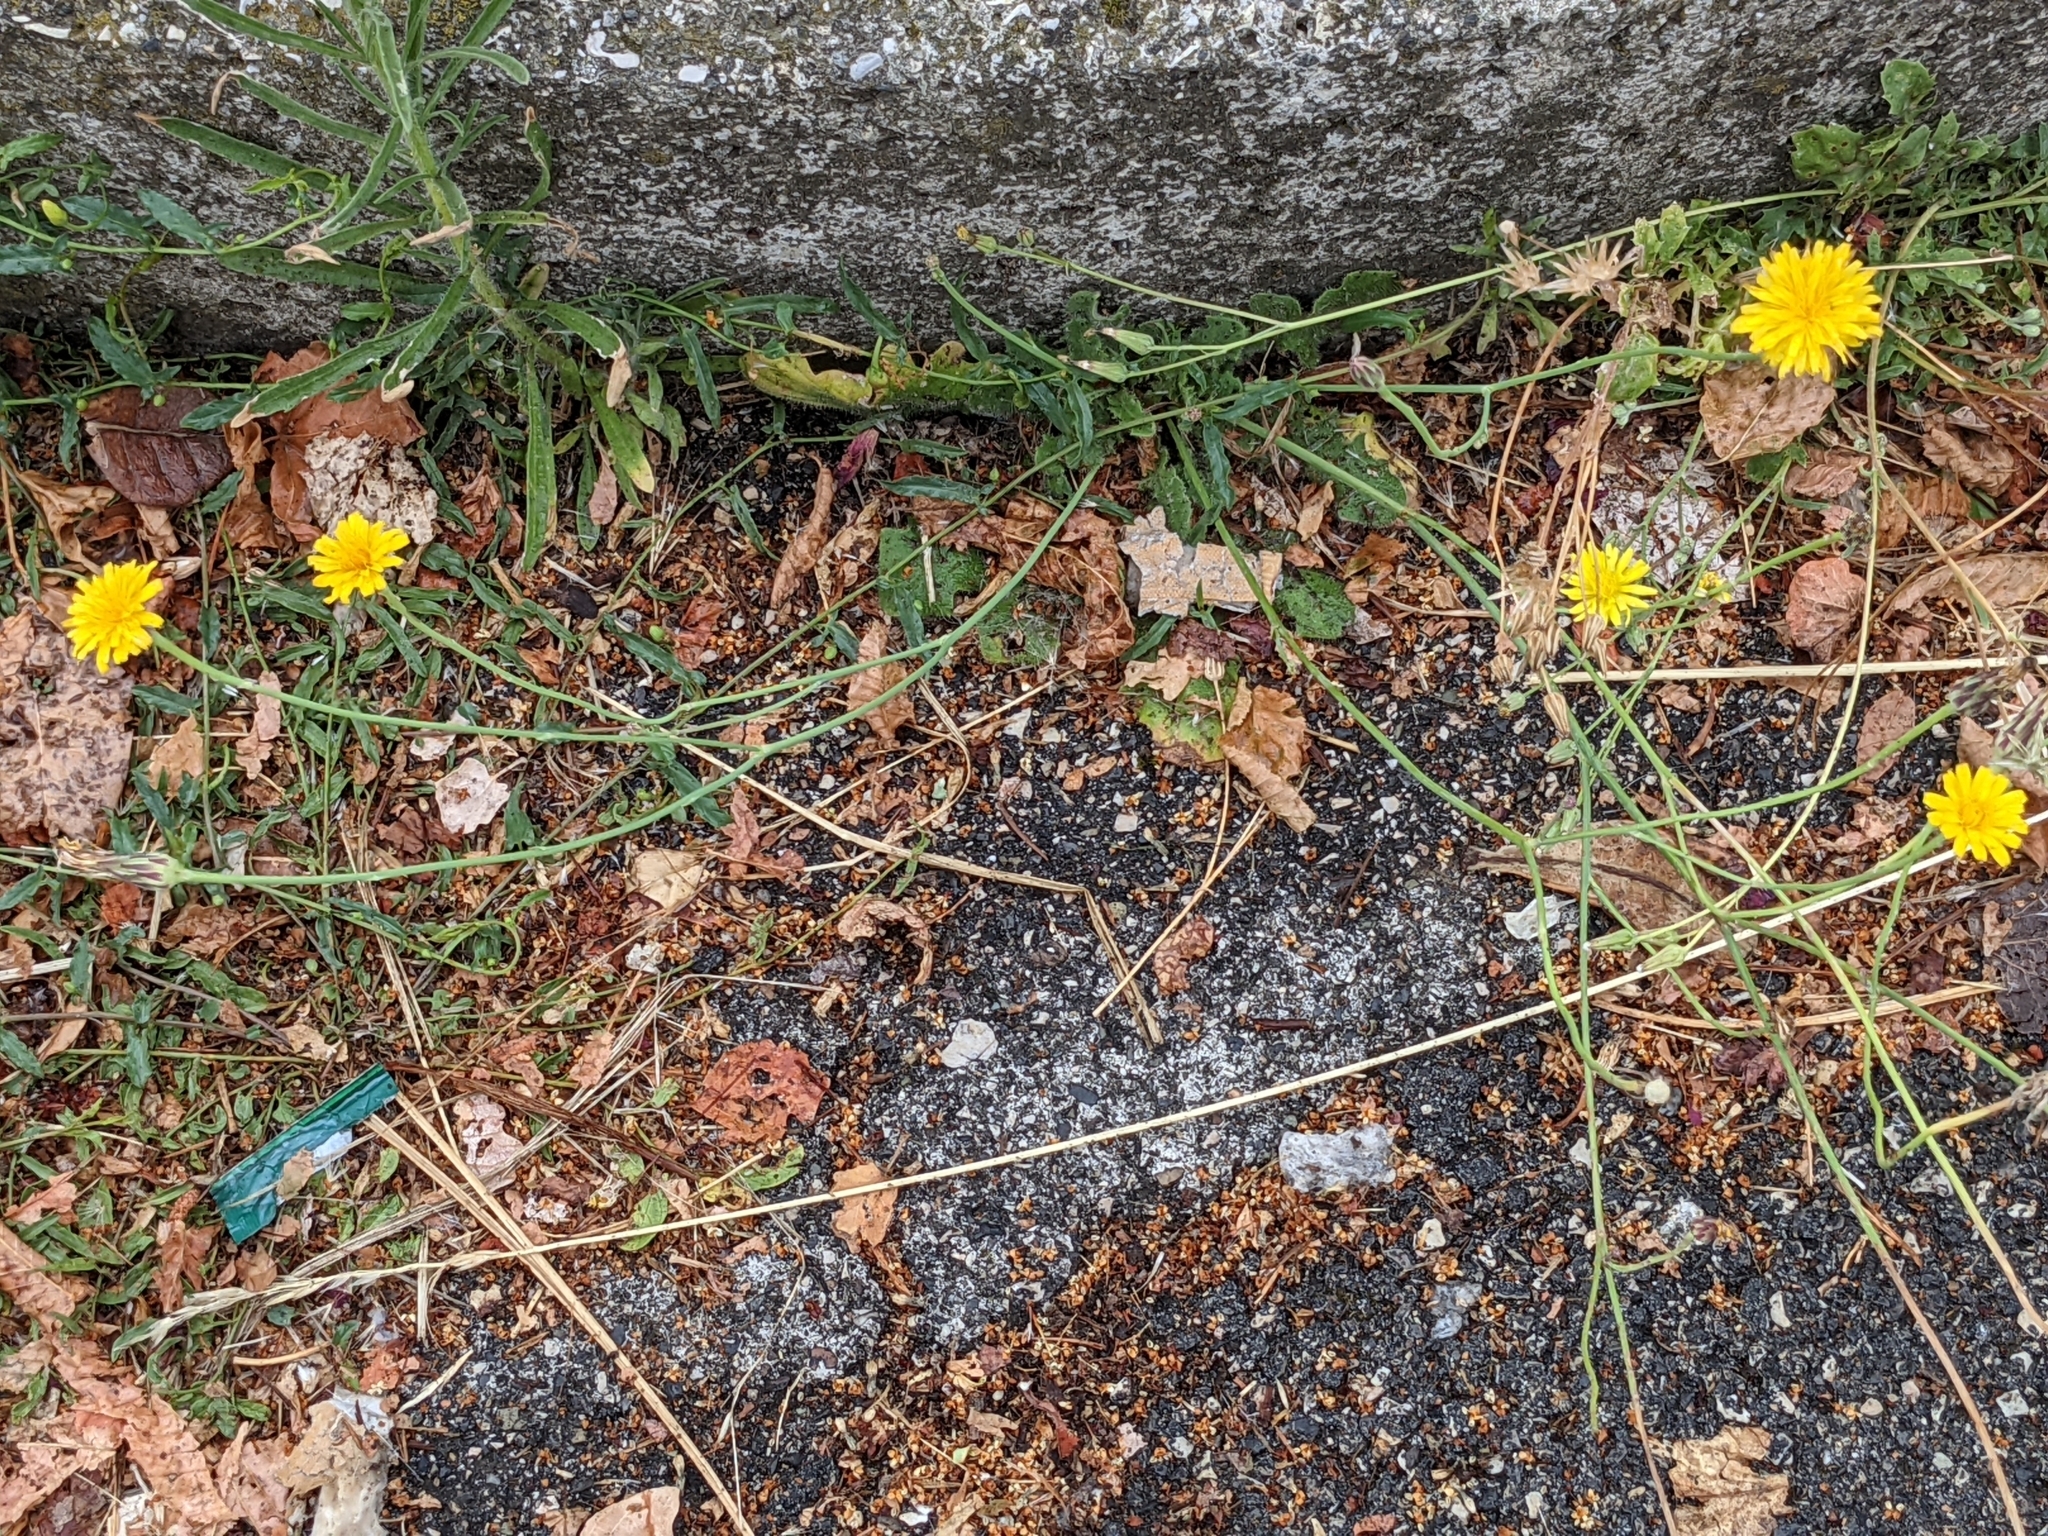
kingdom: Plantae
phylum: Tracheophyta
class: Magnoliopsida
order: Asterales
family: Asteraceae
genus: Hypochaeris
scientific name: Hypochaeris radicata
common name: Flatweed
